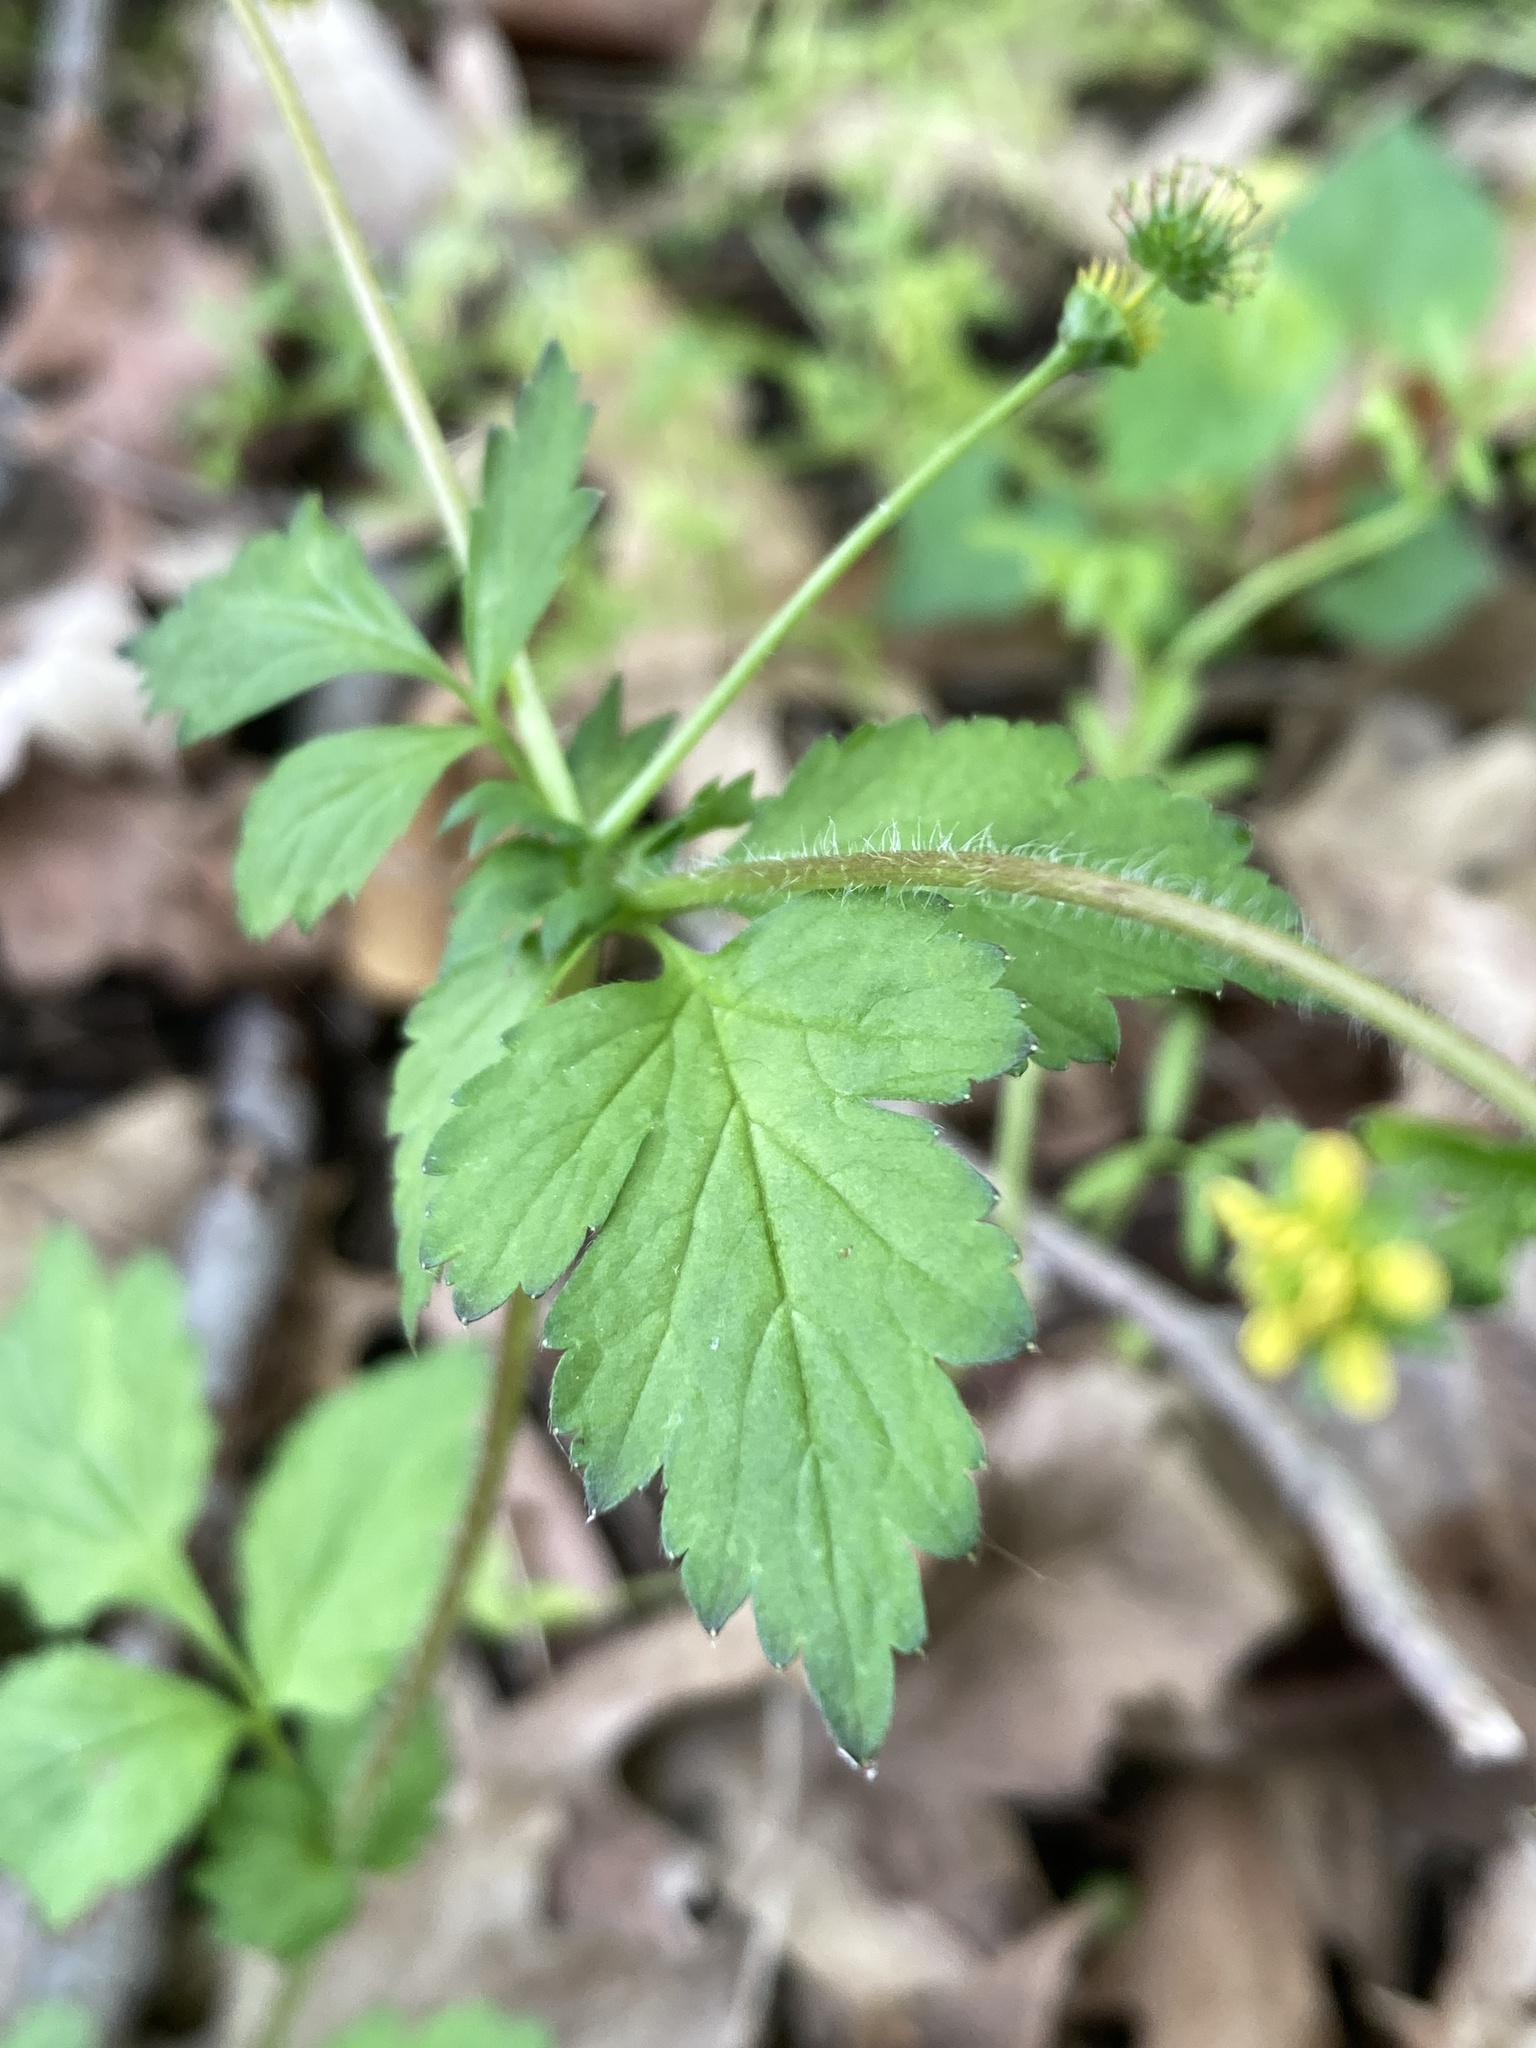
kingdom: Plantae
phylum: Tracheophyta
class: Magnoliopsida
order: Rosales
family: Rosaceae
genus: Geum
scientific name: Geum vernum
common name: Spring avens
